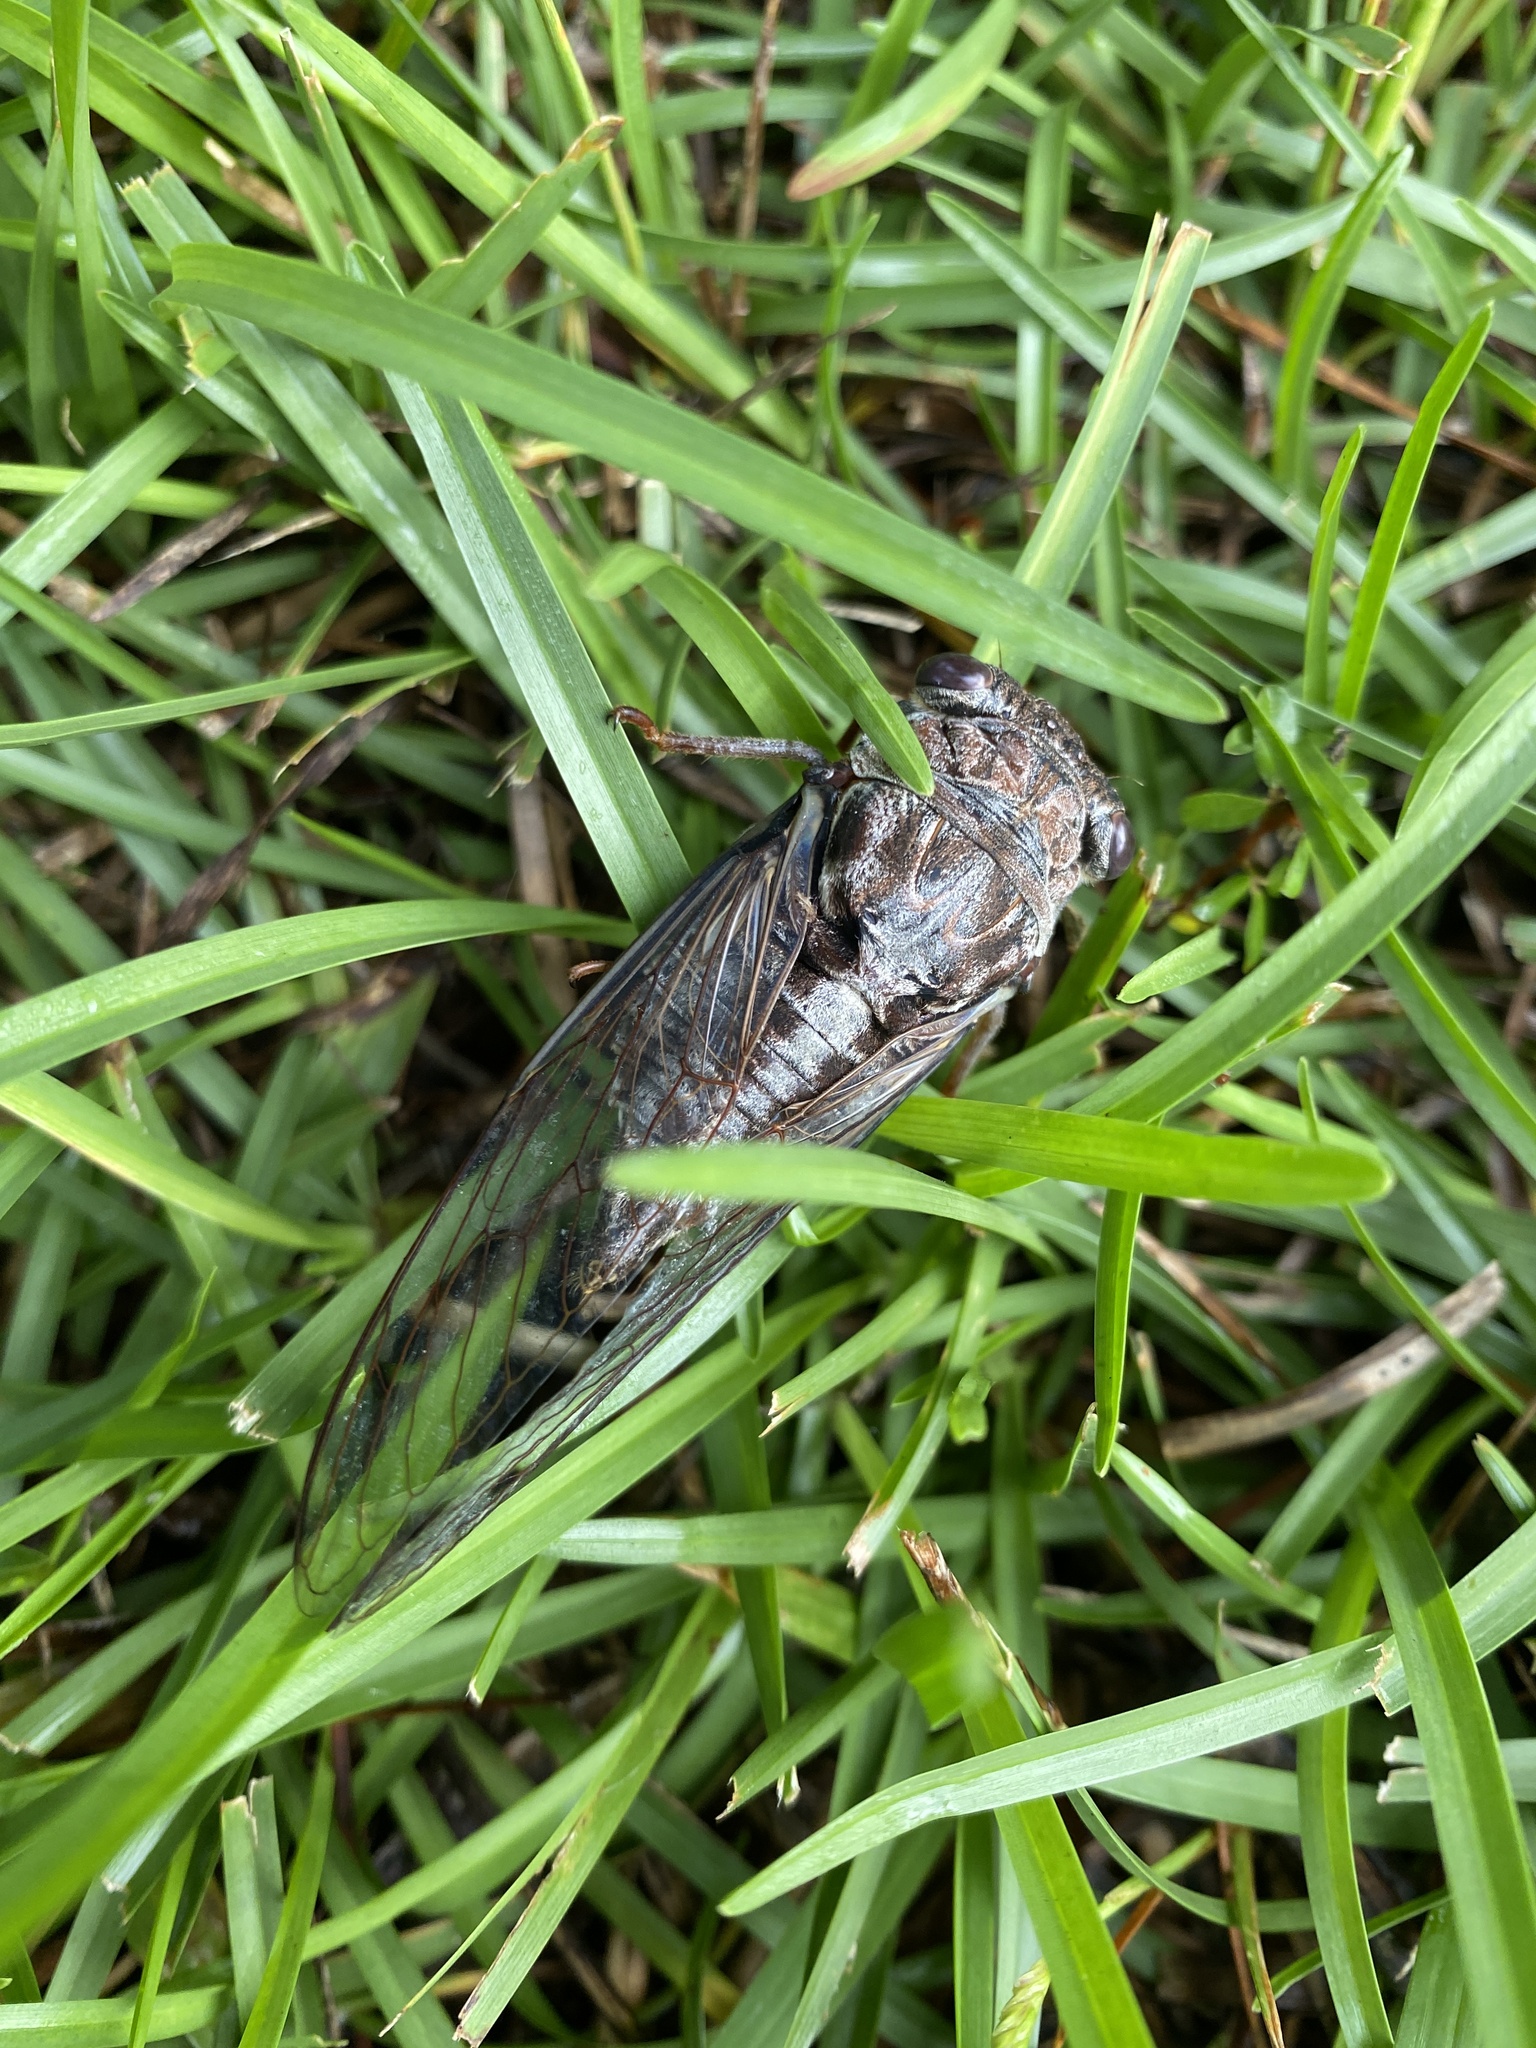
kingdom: Animalia
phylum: Arthropoda
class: Insecta
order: Hemiptera
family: Cicadidae
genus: Megatibicen
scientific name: Megatibicen figuratus
